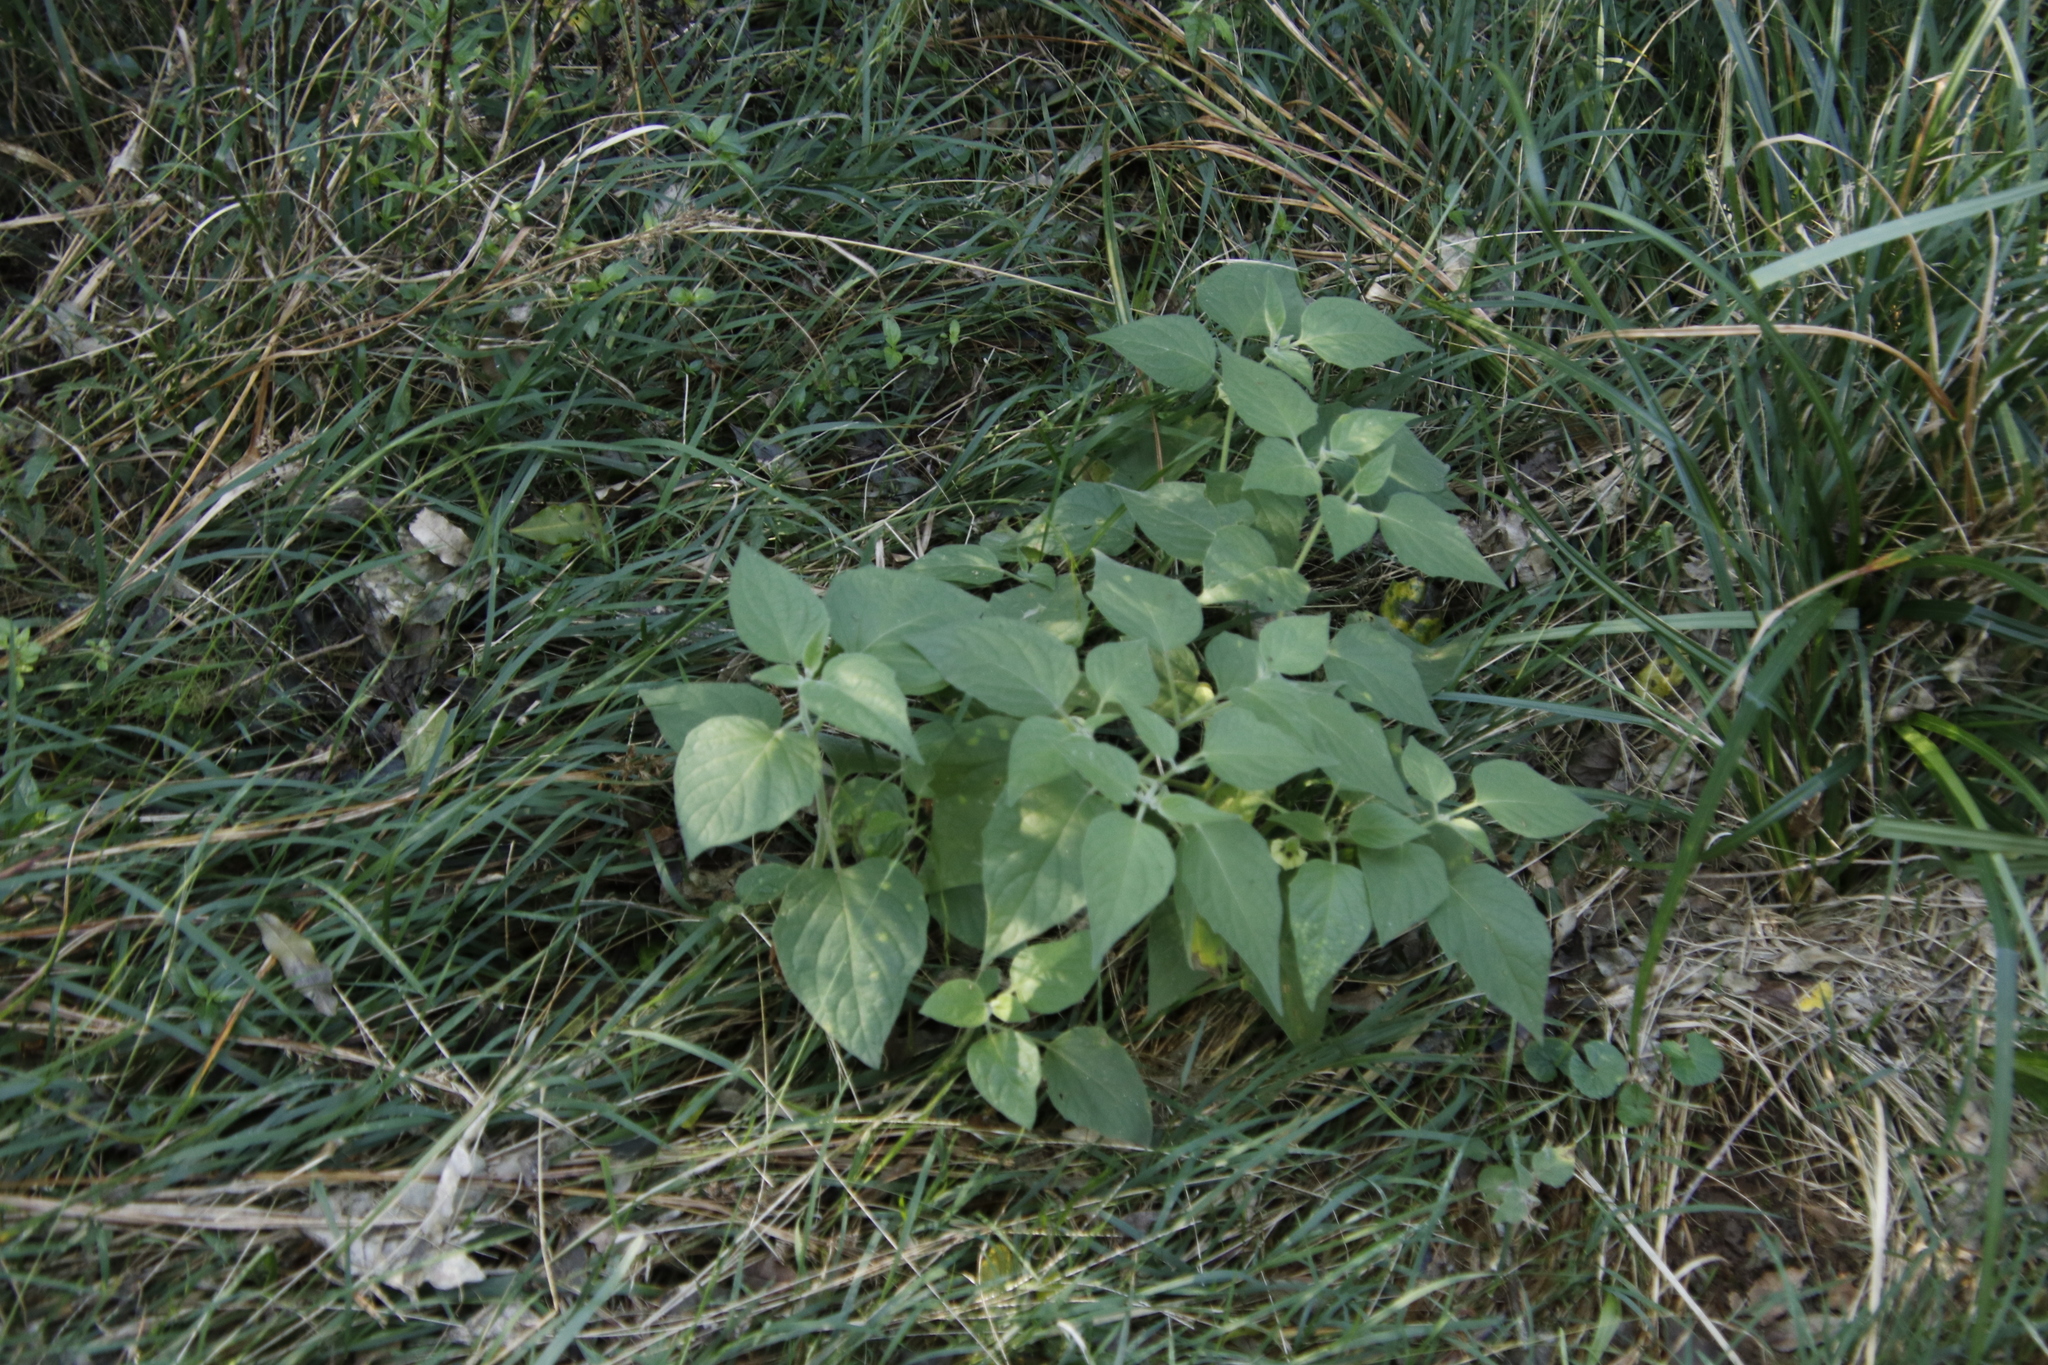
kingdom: Plantae
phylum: Tracheophyta
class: Magnoliopsida
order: Solanales
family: Solanaceae
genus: Physalis
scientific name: Physalis peruviana
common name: Cape-gooseberry
